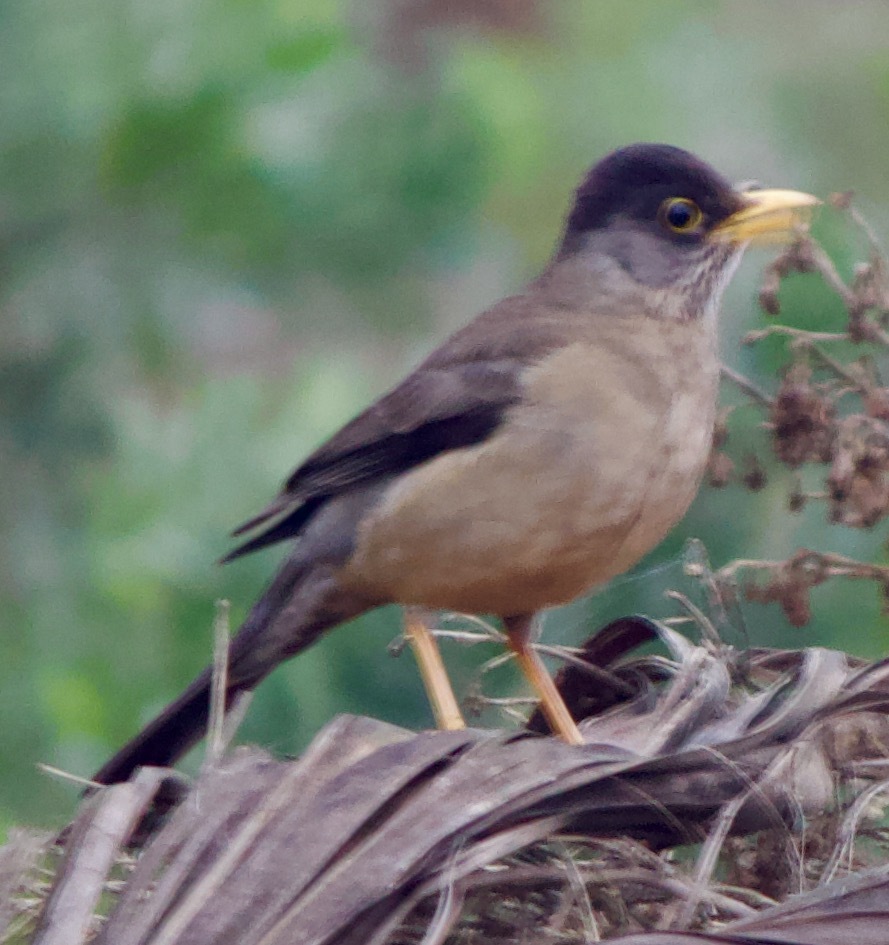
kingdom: Animalia
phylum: Chordata
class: Aves
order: Passeriformes
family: Turdidae
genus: Turdus
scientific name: Turdus falcklandii
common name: Austral thrush
